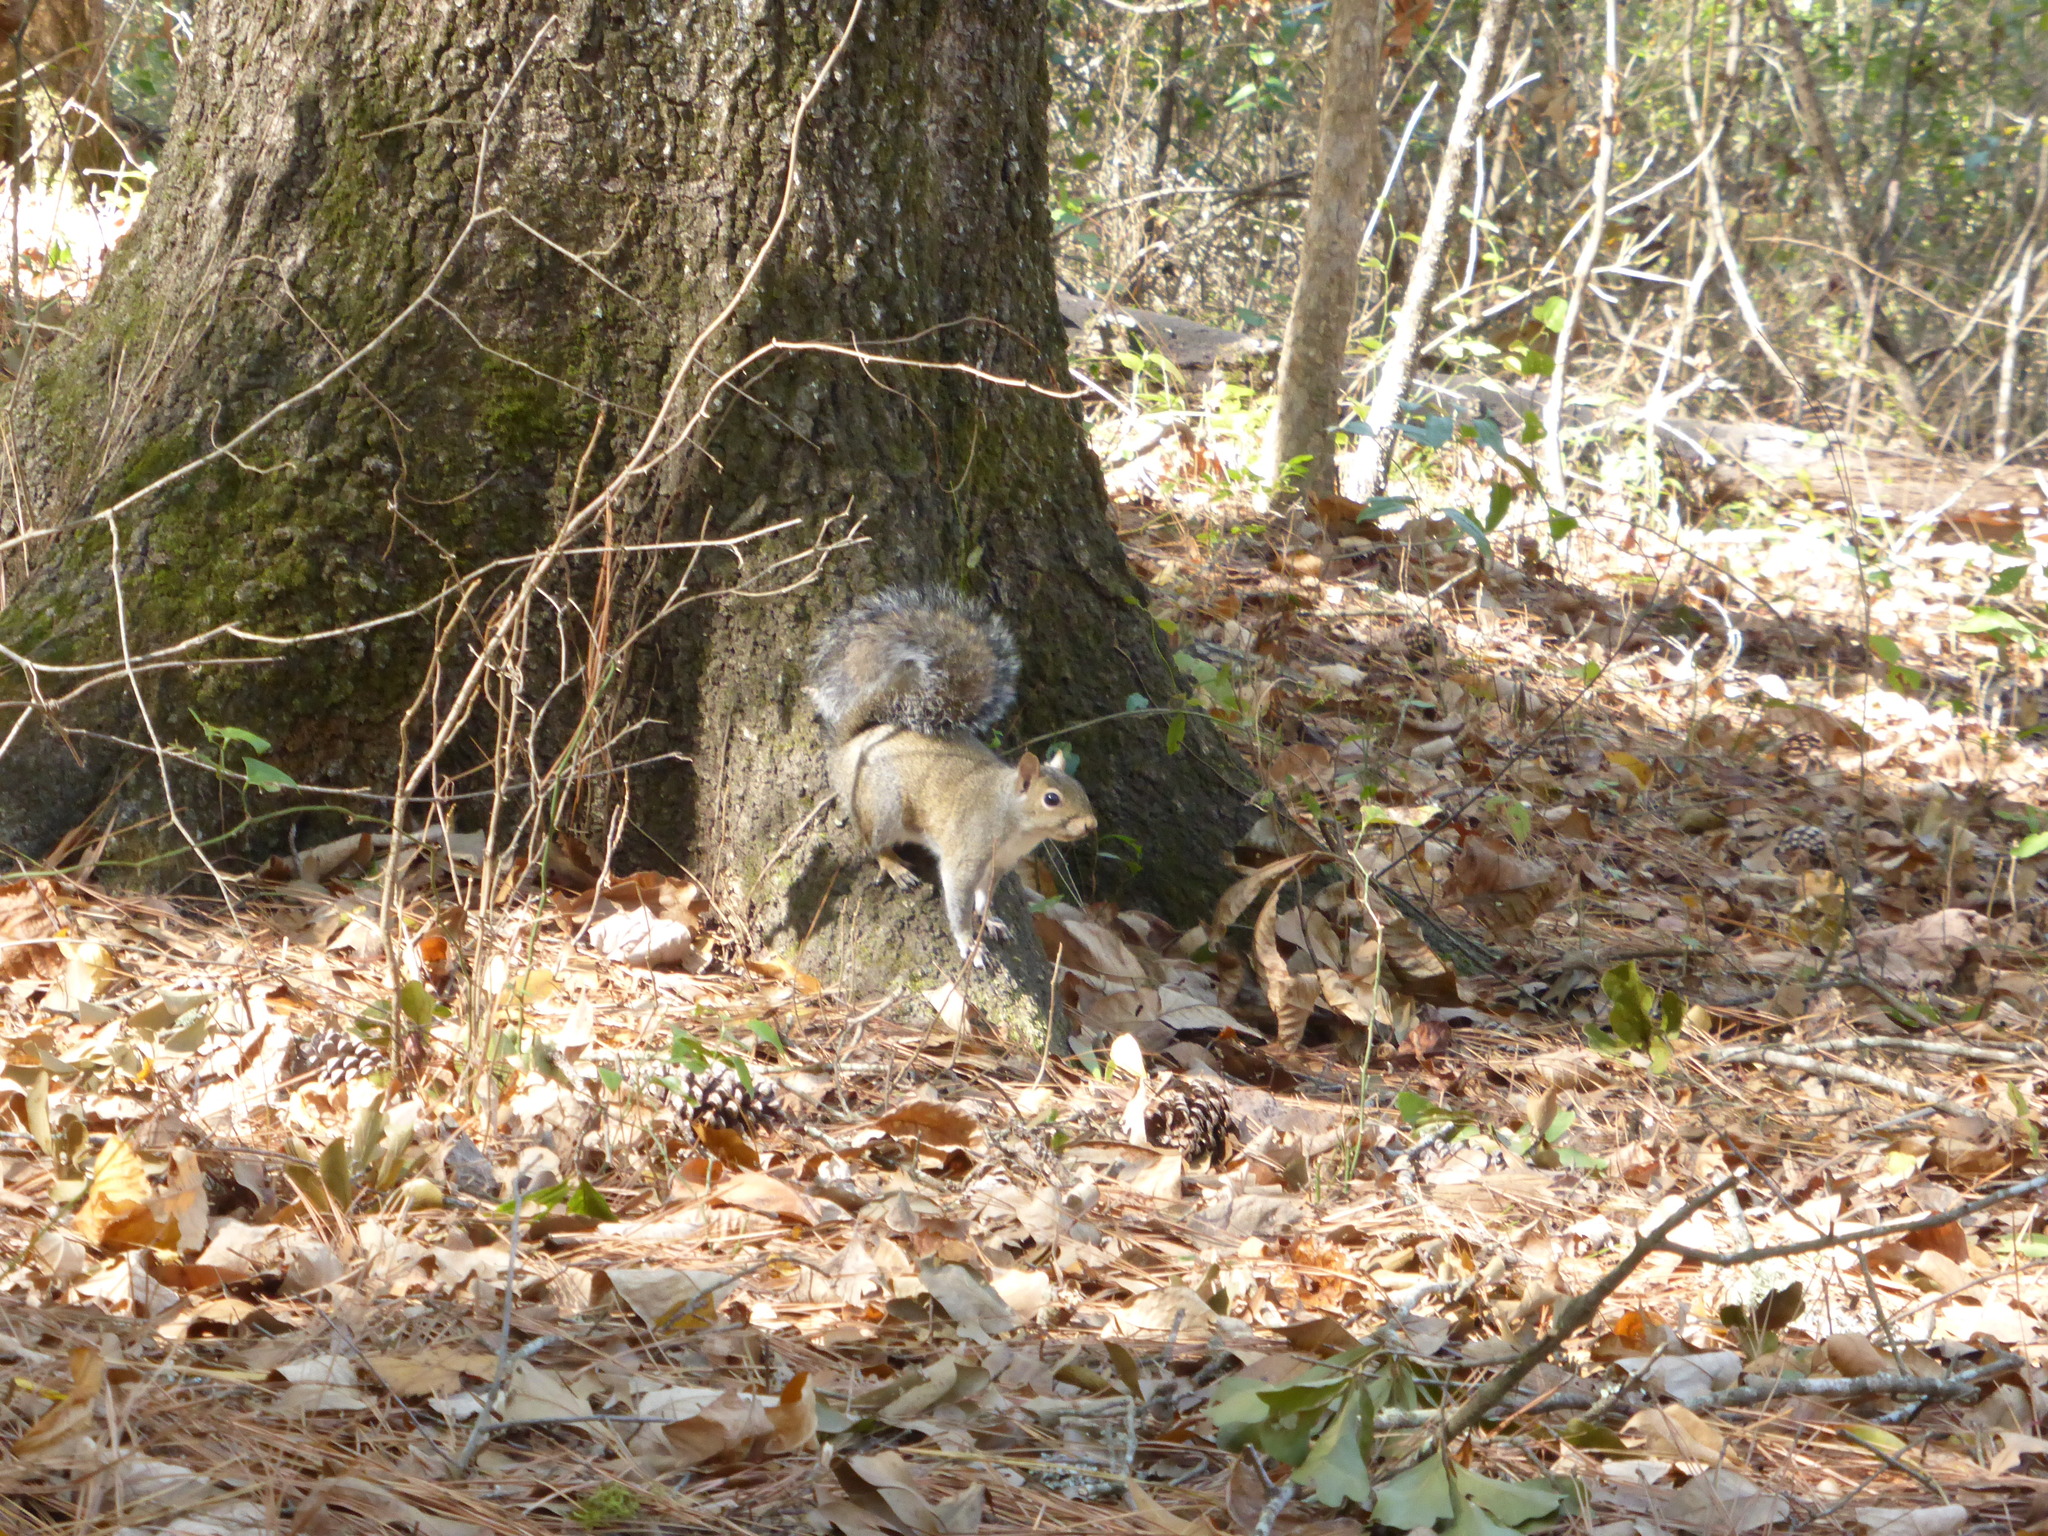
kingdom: Animalia
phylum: Chordata
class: Mammalia
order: Rodentia
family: Sciuridae
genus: Sciurus
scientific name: Sciurus carolinensis
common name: Eastern gray squirrel
